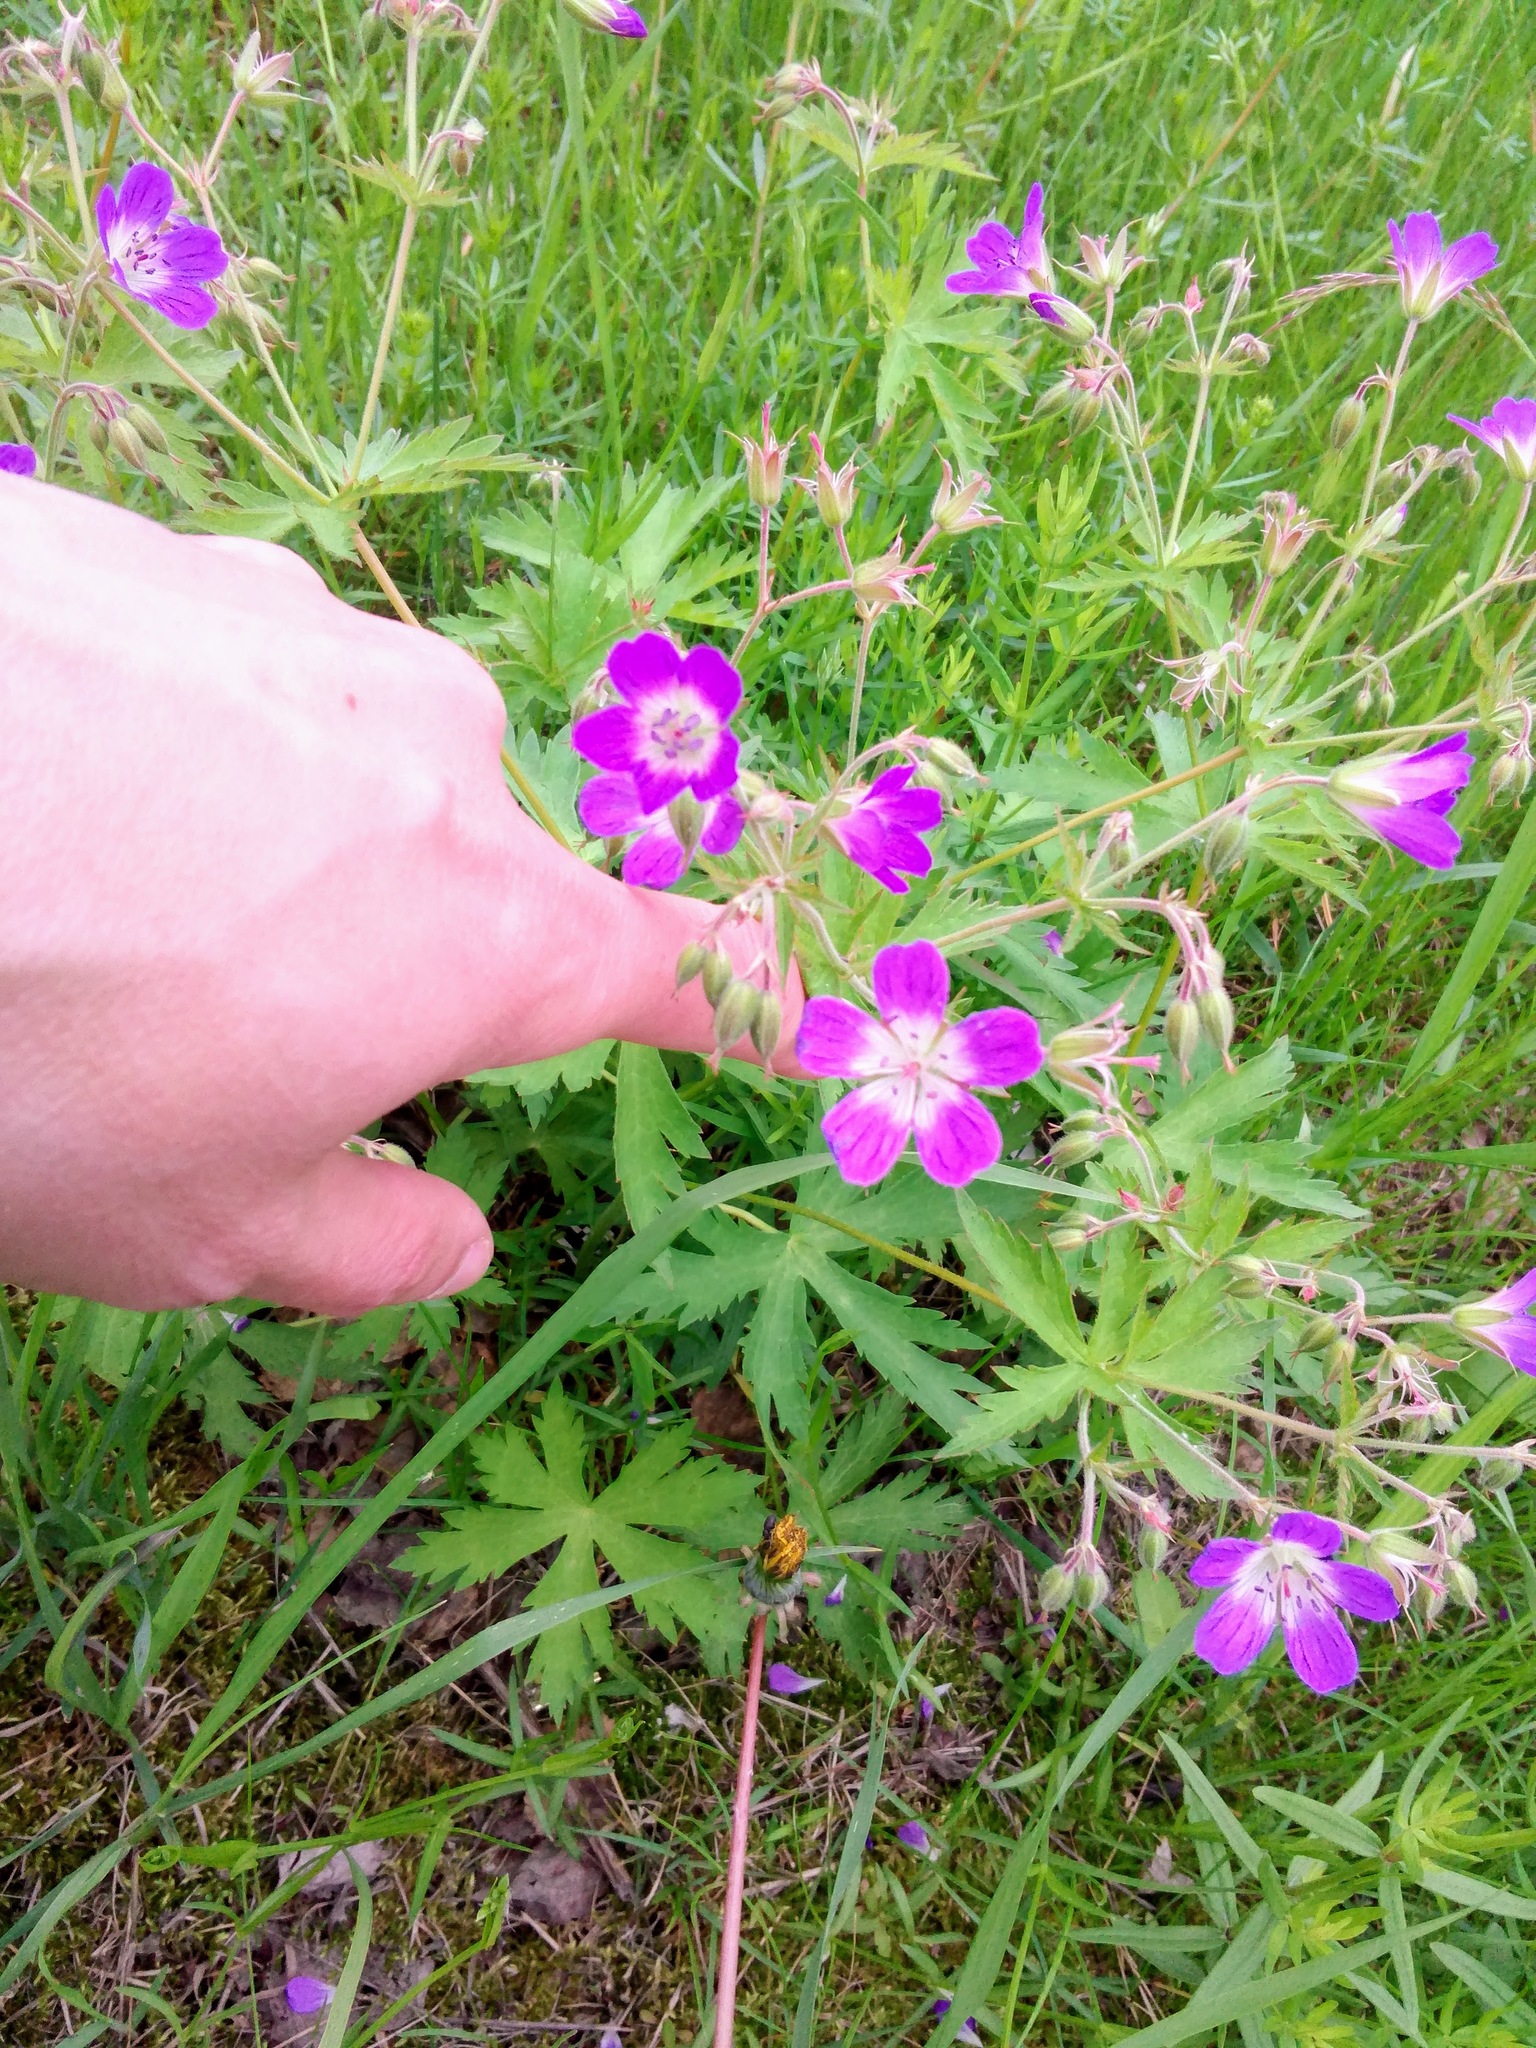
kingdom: Plantae
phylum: Tracheophyta
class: Magnoliopsida
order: Geraniales
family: Geraniaceae
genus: Geranium
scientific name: Geranium sylvaticum
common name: Wood crane's-bill
